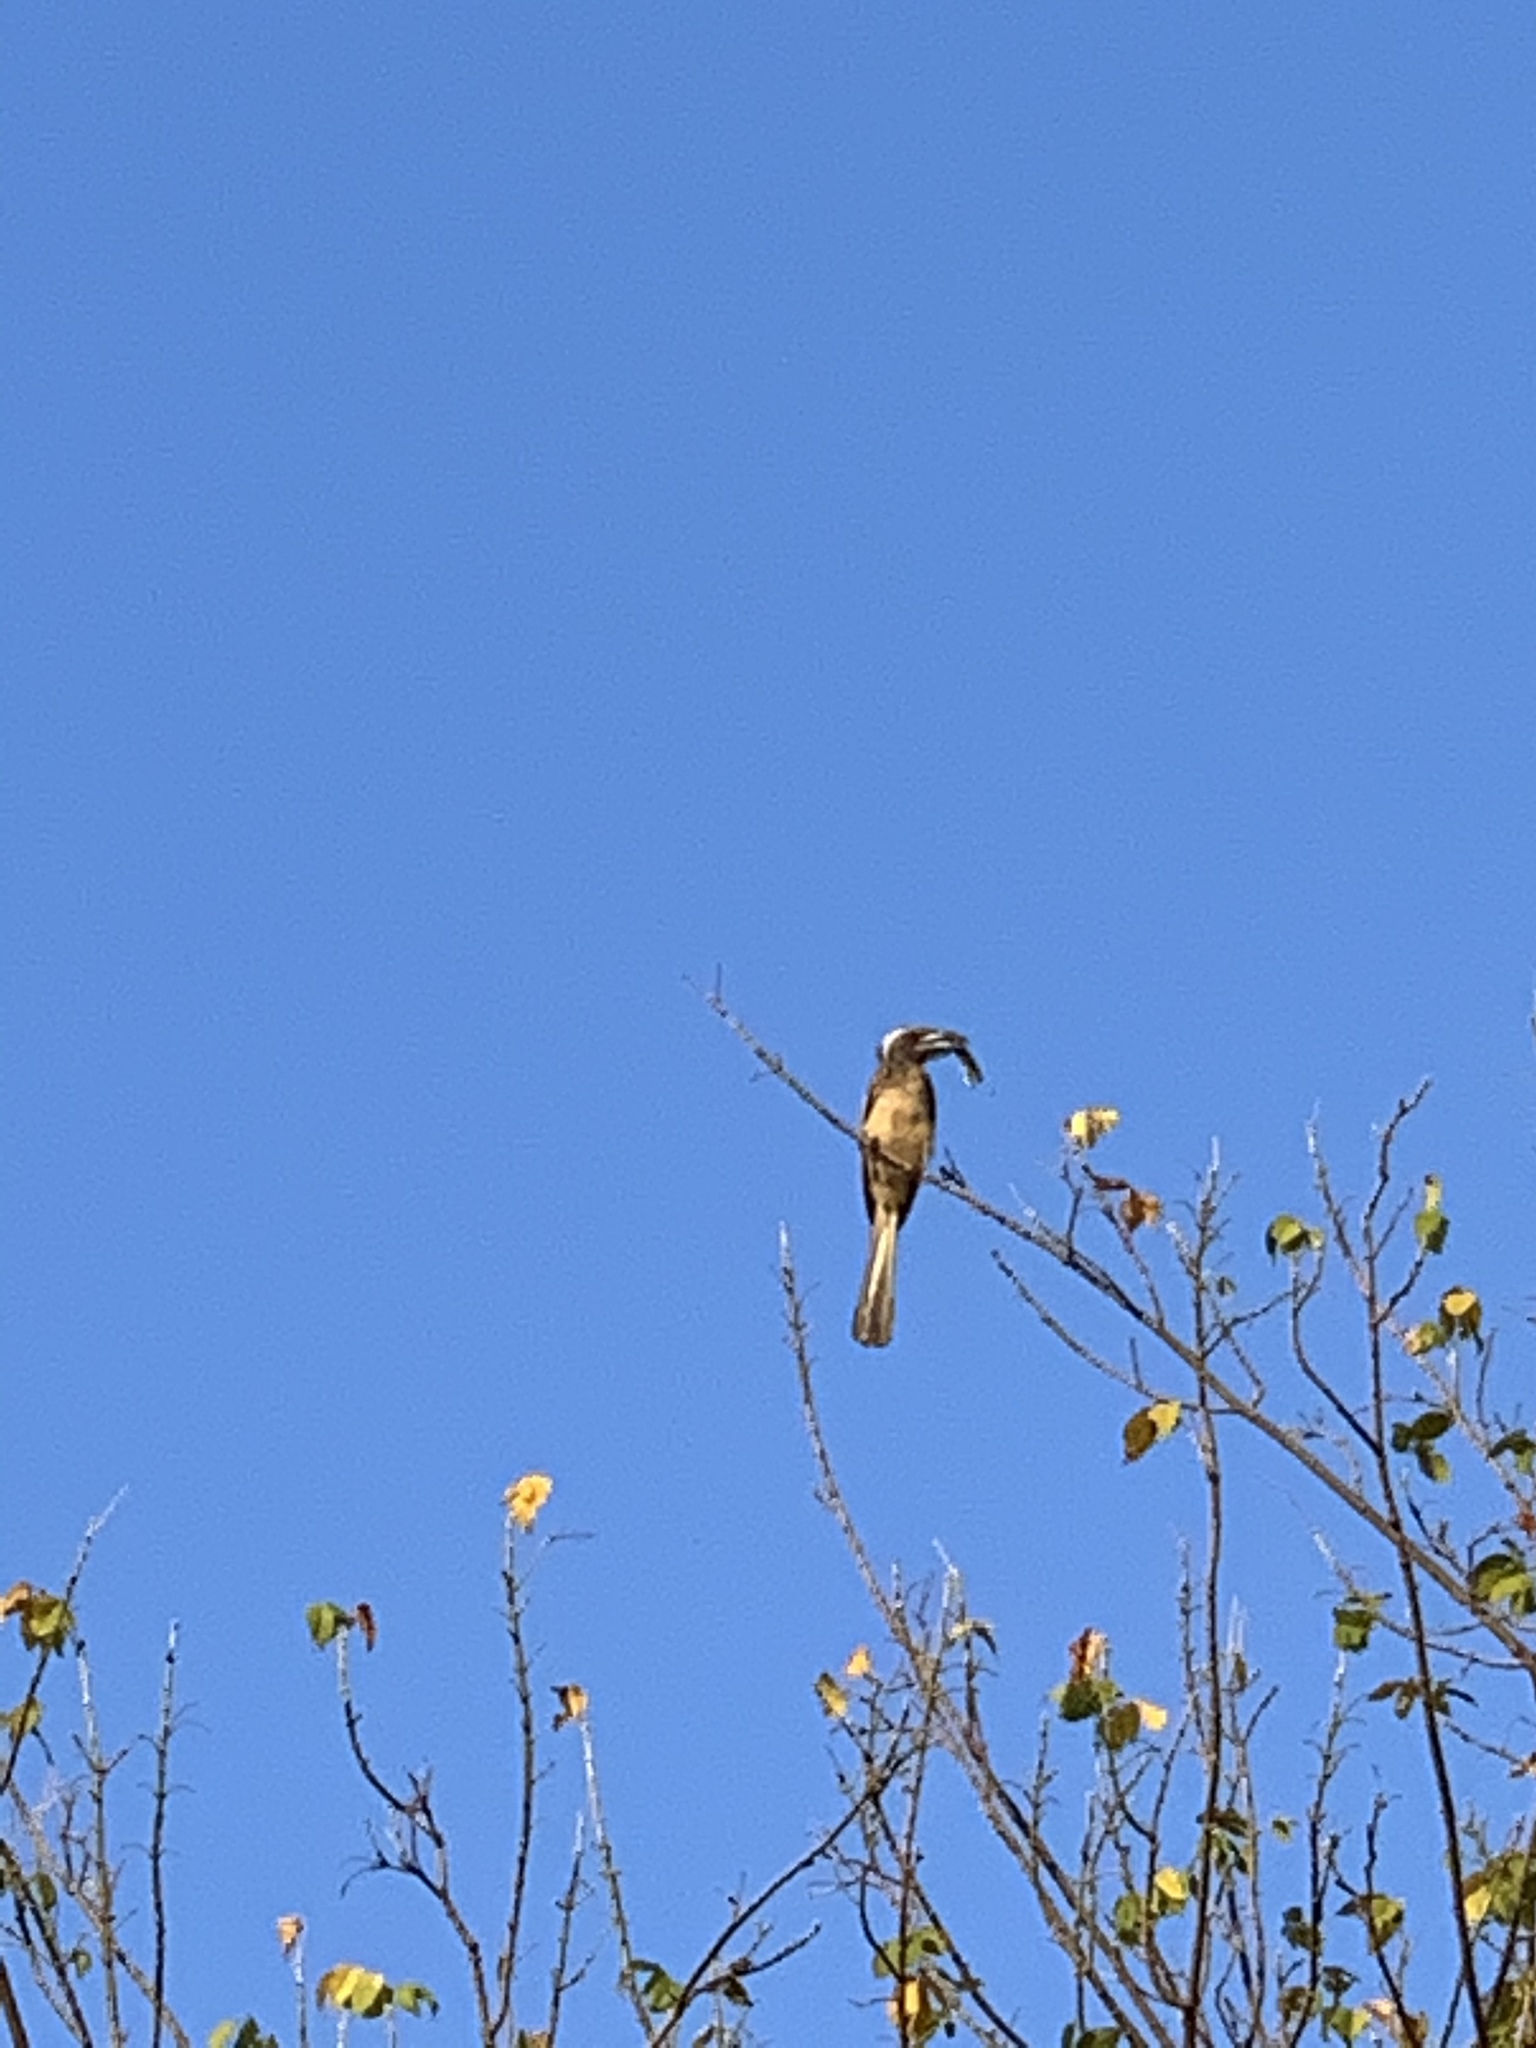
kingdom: Animalia
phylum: Chordata
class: Aves
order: Bucerotiformes
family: Bucerotidae
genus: Lophoceros
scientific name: Lophoceros nasutus
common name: African grey hornbill
